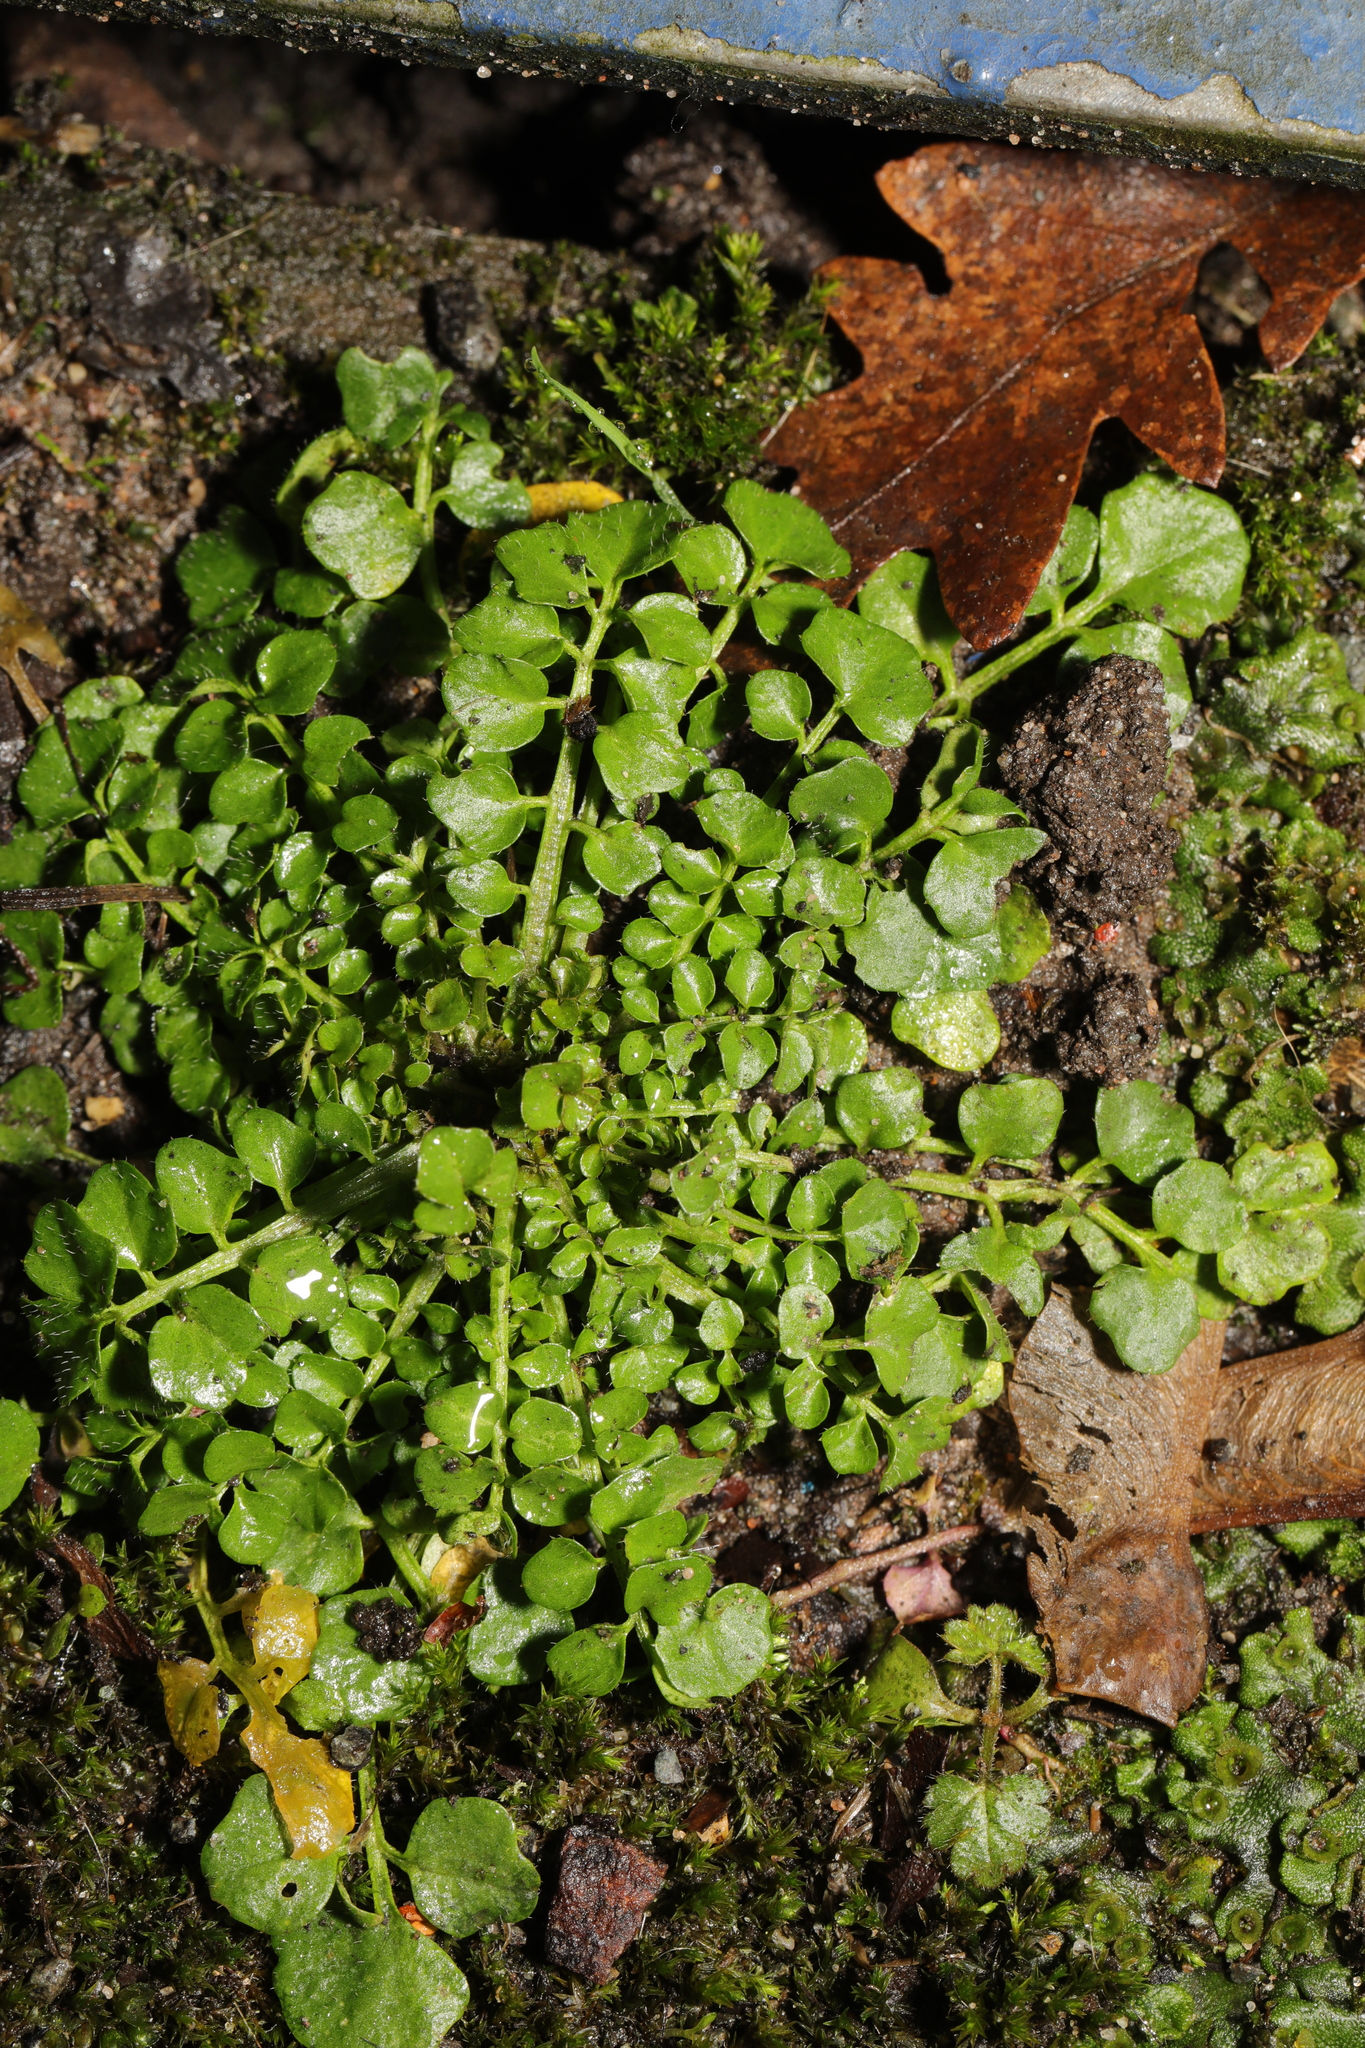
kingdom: Plantae
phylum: Tracheophyta
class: Magnoliopsida
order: Brassicales
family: Brassicaceae
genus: Cardamine
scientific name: Cardamine hirsuta
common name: Hairy bittercress
